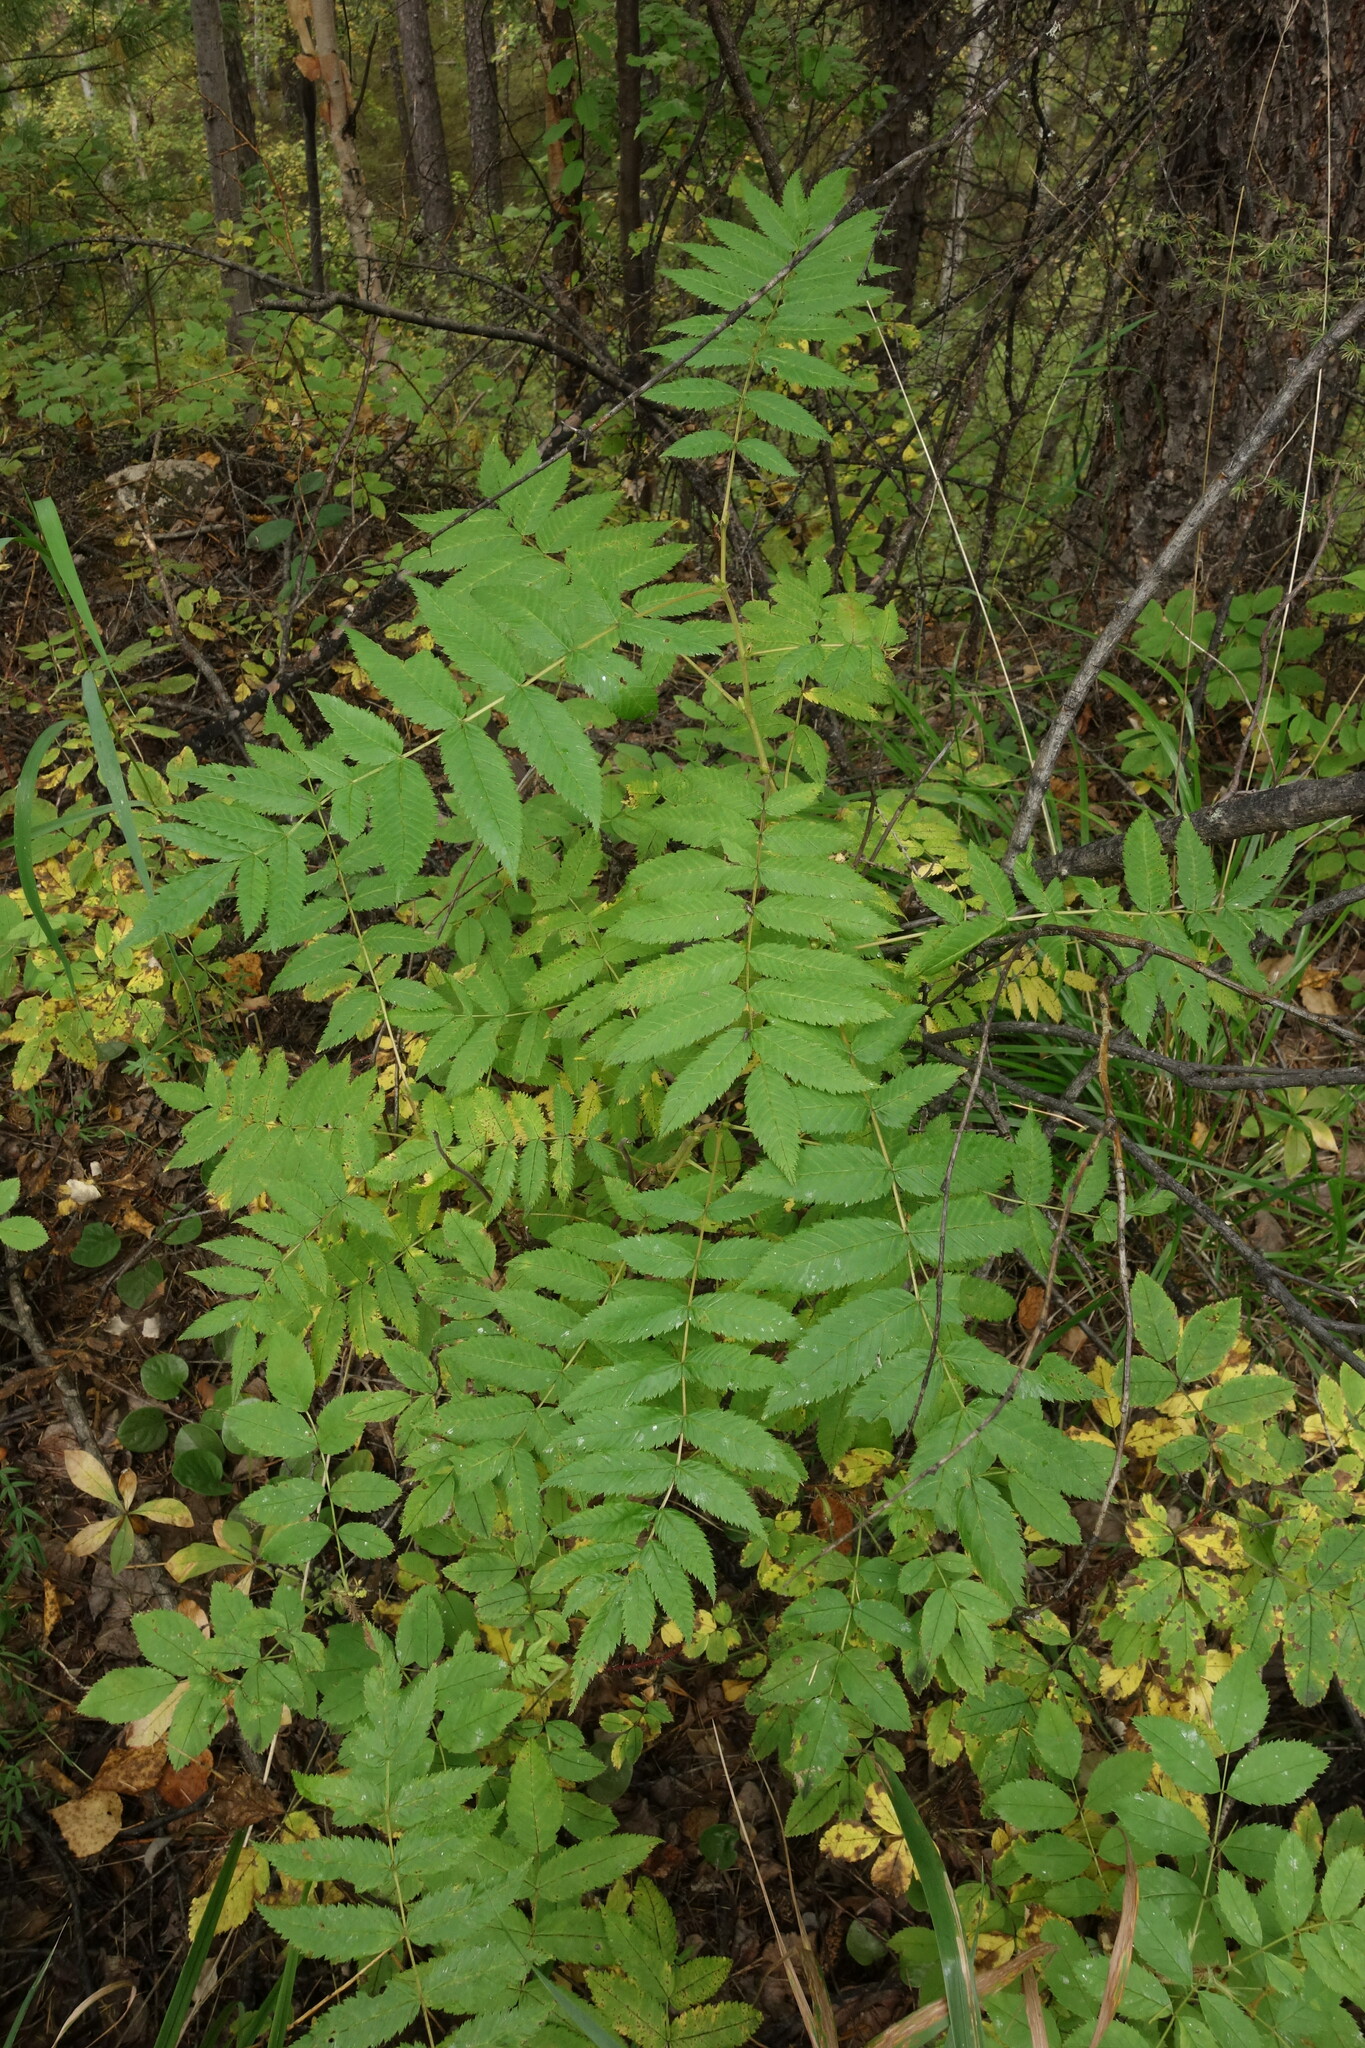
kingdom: Plantae
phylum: Tracheophyta
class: Magnoliopsida
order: Rosales
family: Rosaceae
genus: Sorbaria
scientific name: Sorbaria sorbifolia
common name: False spiraea
